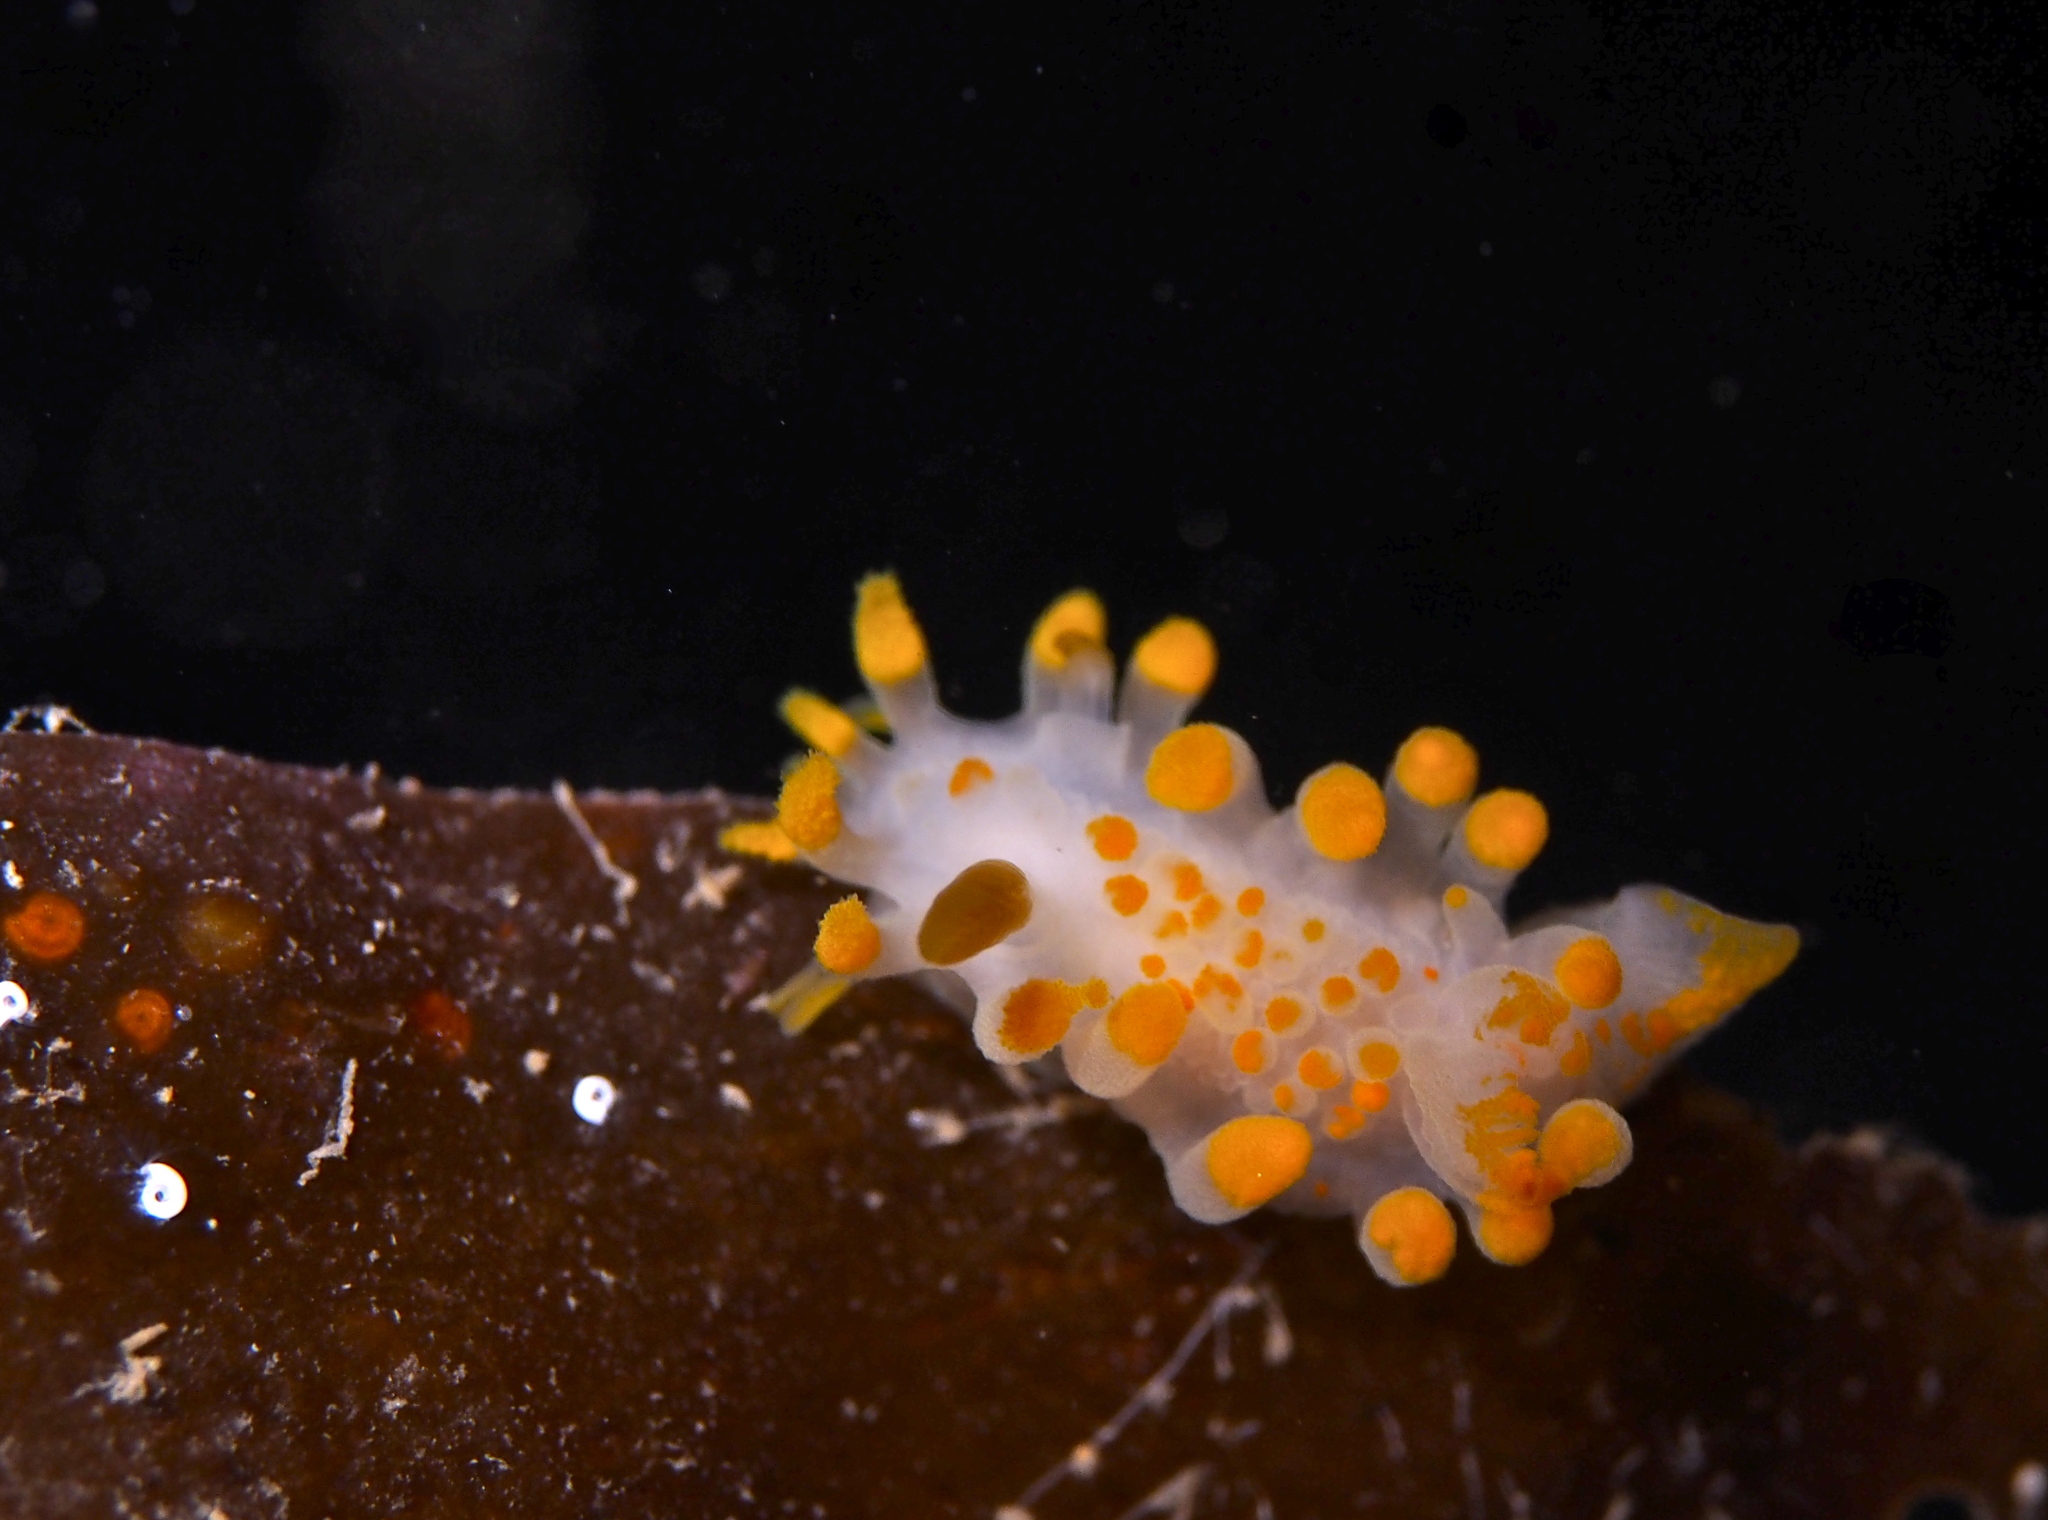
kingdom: Animalia
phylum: Mollusca
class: Gastropoda
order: Nudibranchia
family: Polyceridae
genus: Limacia
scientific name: Limacia clavigera
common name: Orange-clubbed sea slug
